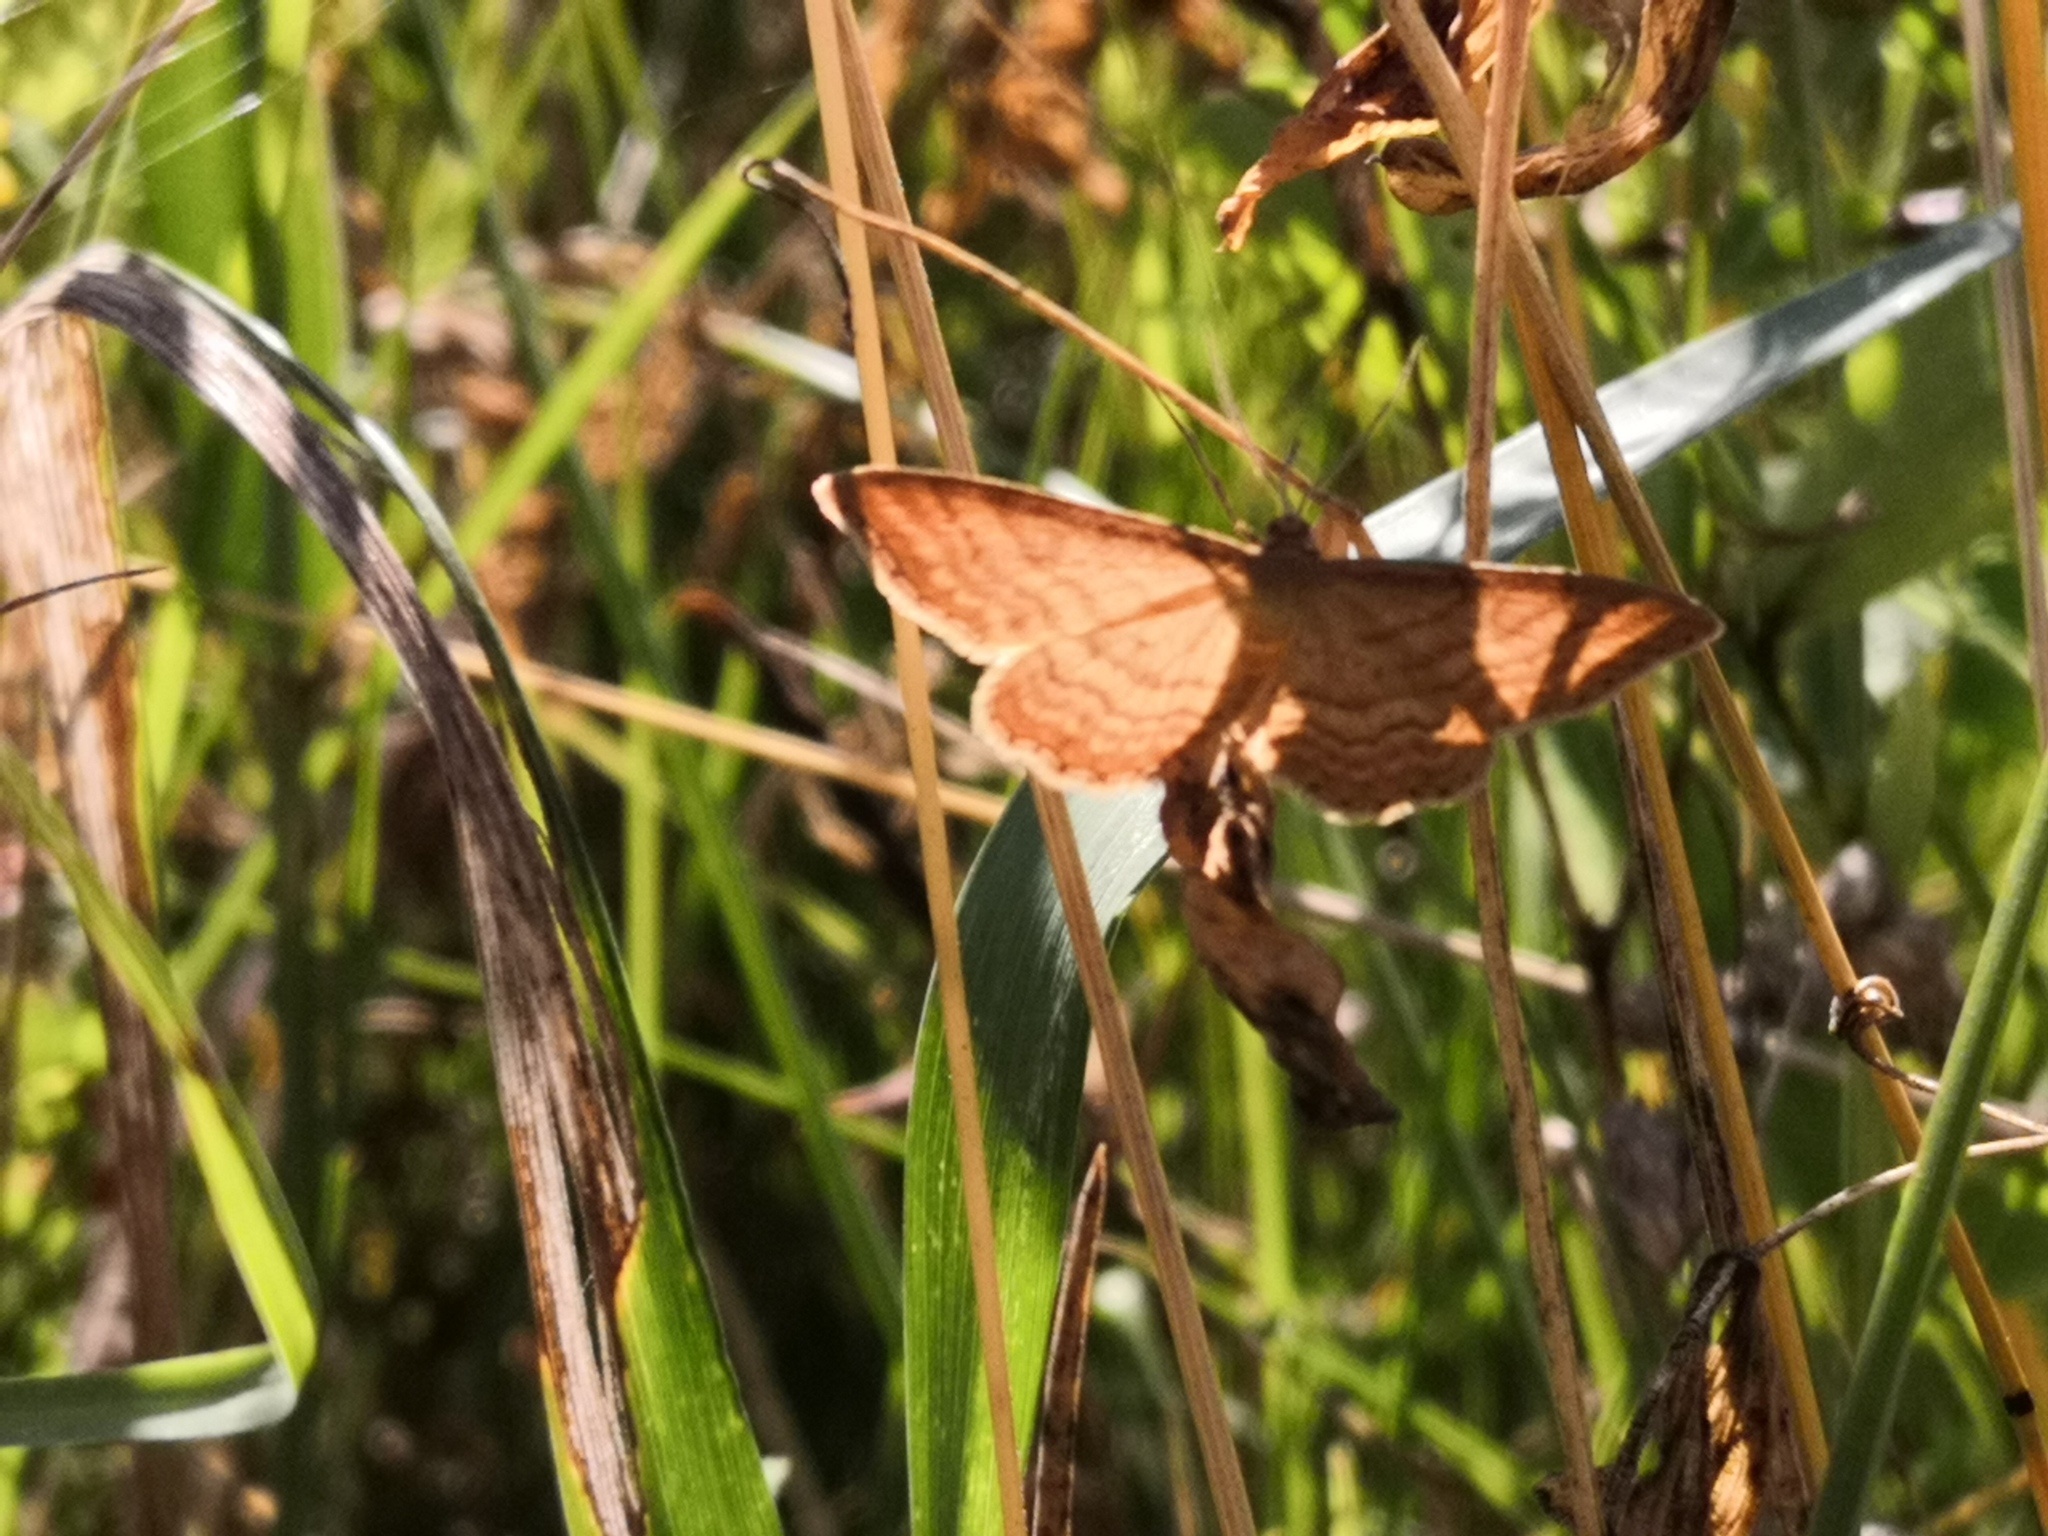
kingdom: Animalia
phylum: Arthropoda
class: Insecta
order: Lepidoptera
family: Geometridae
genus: Idaea
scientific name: Idaea ochrata
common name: Bright wave
